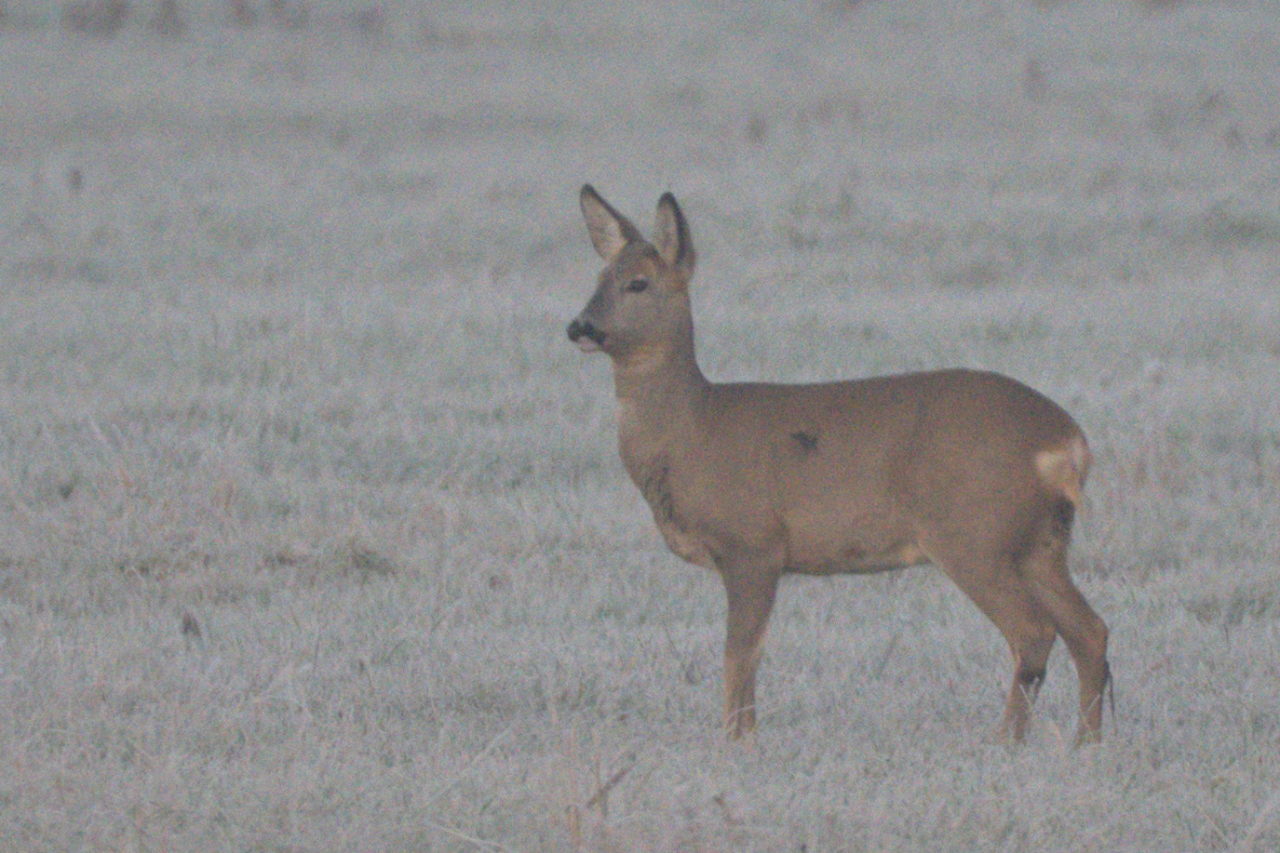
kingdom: Animalia
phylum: Chordata
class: Mammalia
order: Artiodactyla
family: Cervidae
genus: Capreolus
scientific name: Capreolus capreolus
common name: Western roe deer
